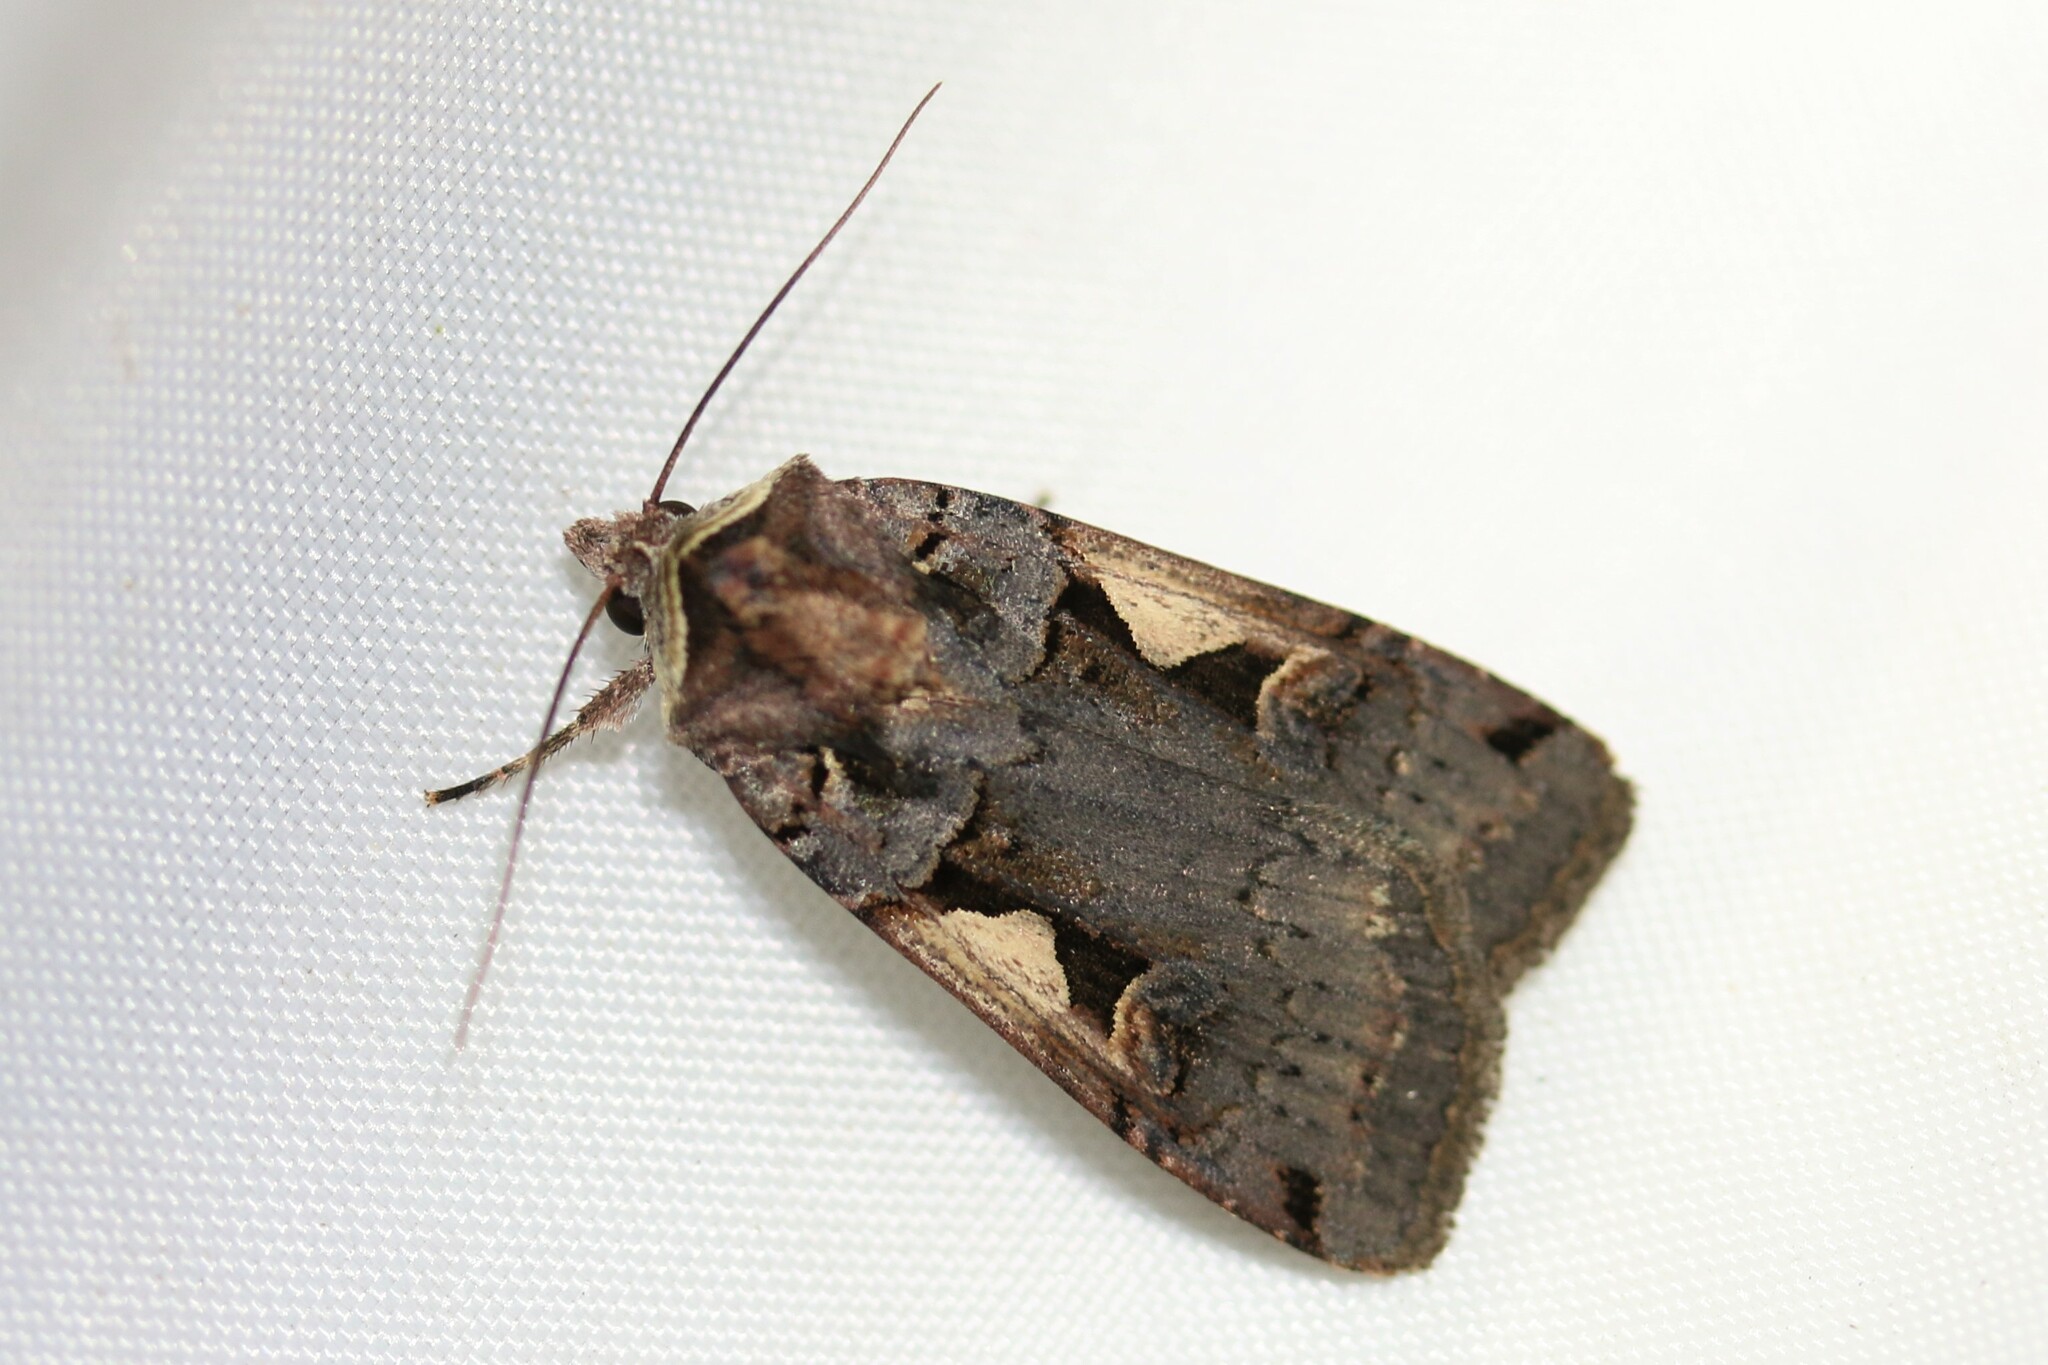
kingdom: Animalia
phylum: Arthropoda
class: Insecta
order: Lepidoptera
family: Noctuidae
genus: Xestia
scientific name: Xestia c-nigrum
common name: Setaceous hebrew character
